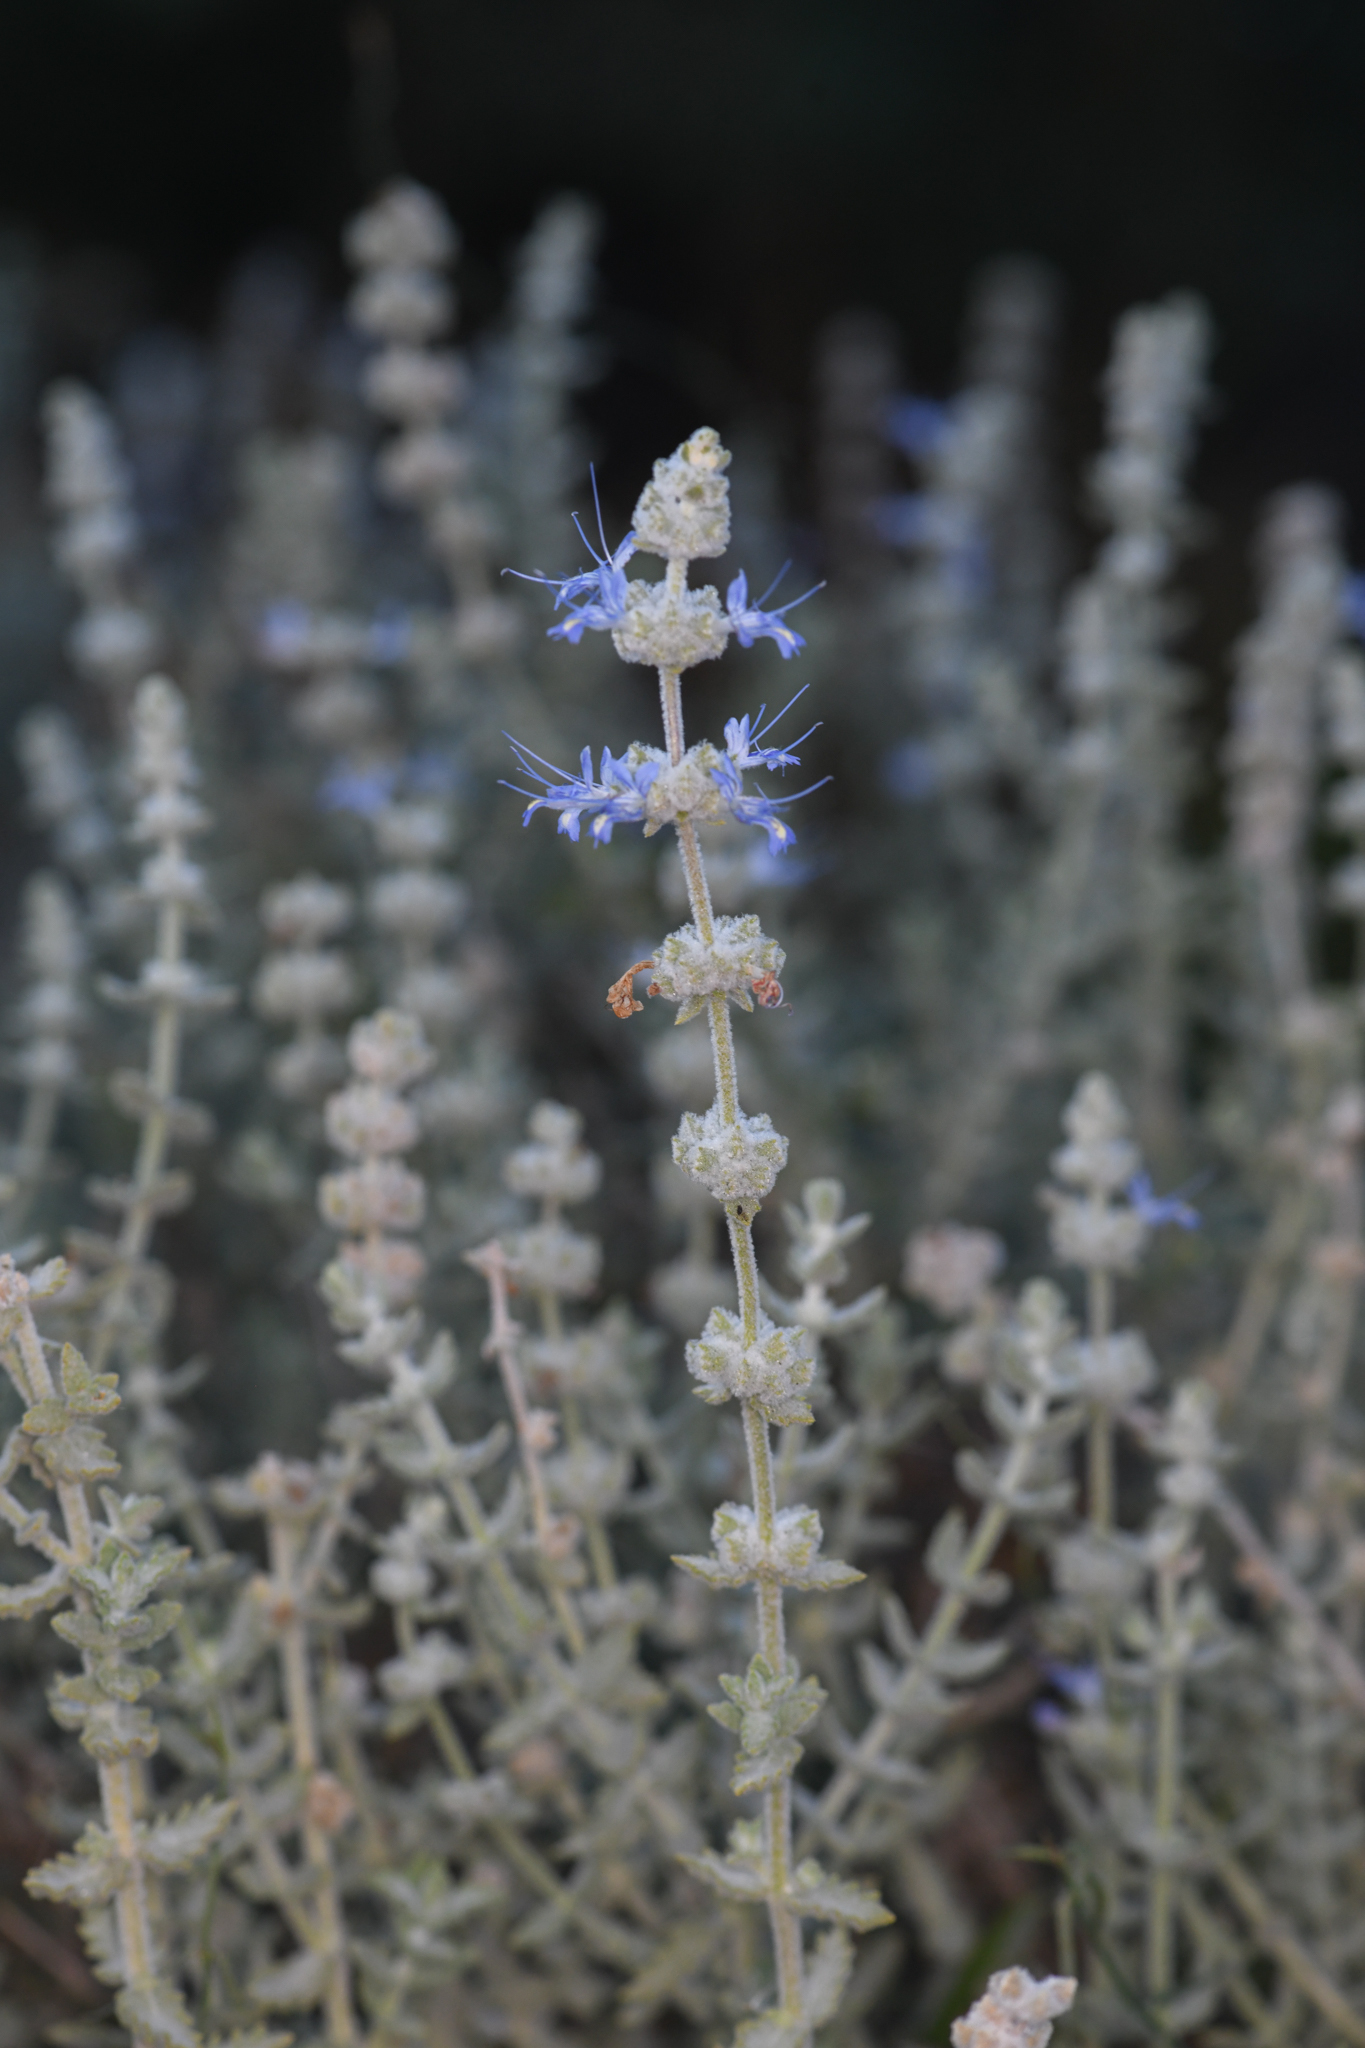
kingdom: Plantae
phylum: Tracheophyta
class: Magnoliopsida
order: Lamiales
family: Lamiaceae
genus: Salvia
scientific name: Salvia californica
